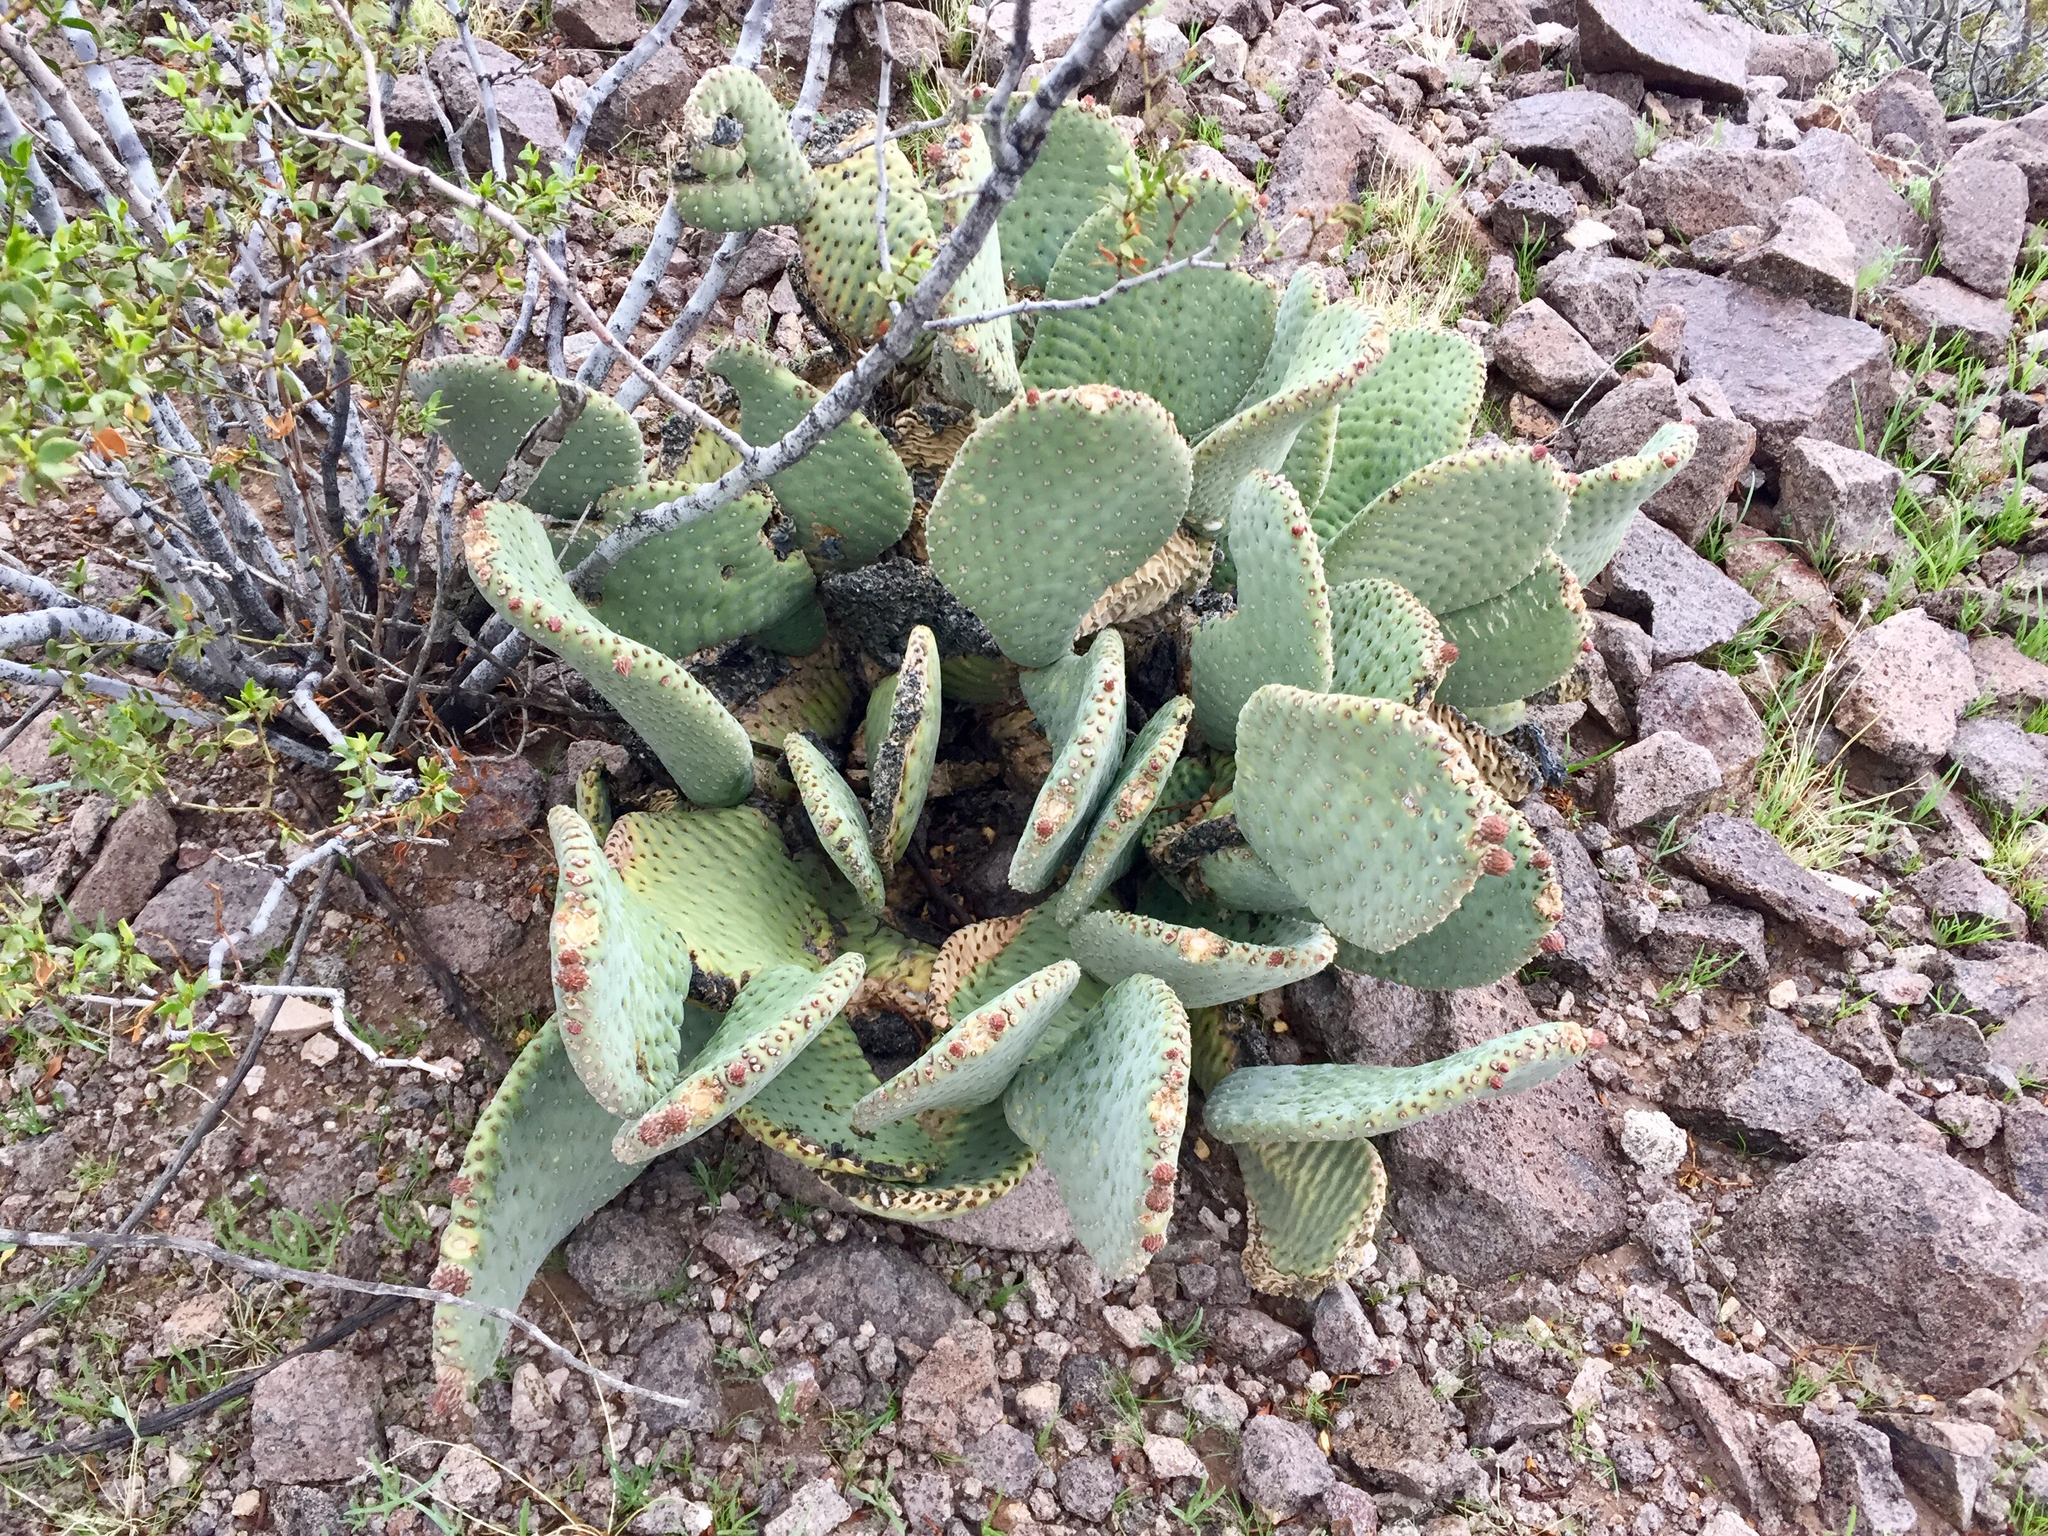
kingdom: Plantae
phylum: Tracheophyta
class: Magnoliopsida
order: Caryophyllales
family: Cactaceae
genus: Opuntia
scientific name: Opuntia basilaris
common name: Beavertail prickly-pear
